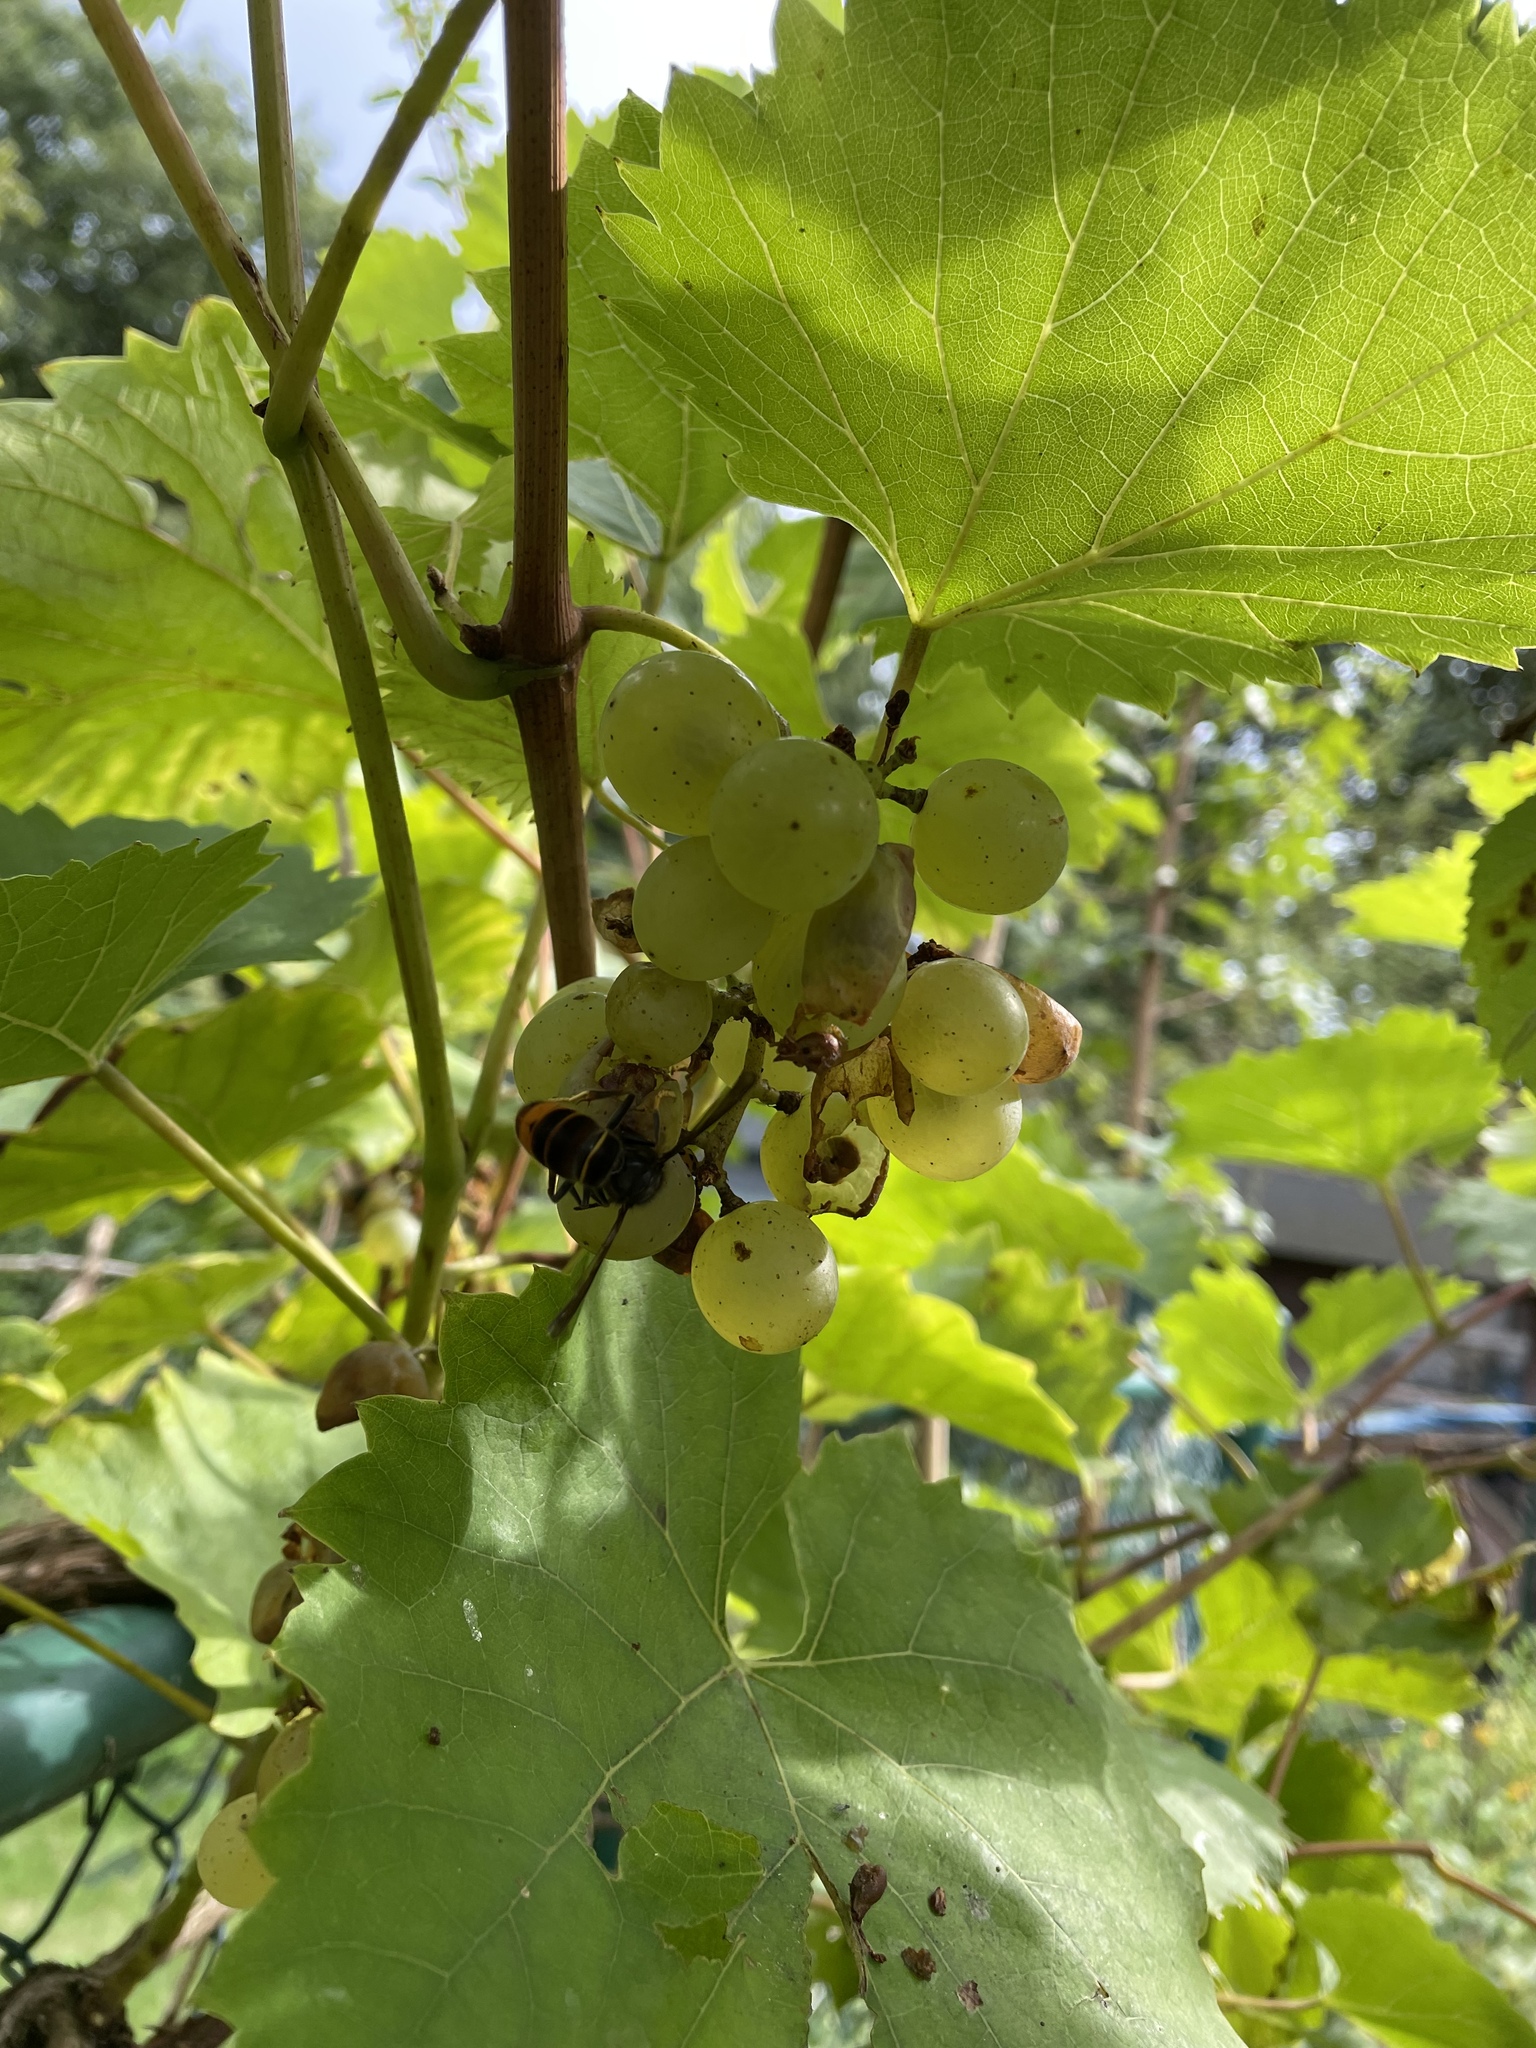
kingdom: Animalia
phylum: Arthropoda
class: Insecta
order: Hymenoptera
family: Vespidae
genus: Vespa
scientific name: Vespa velutina
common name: Asian hornet
